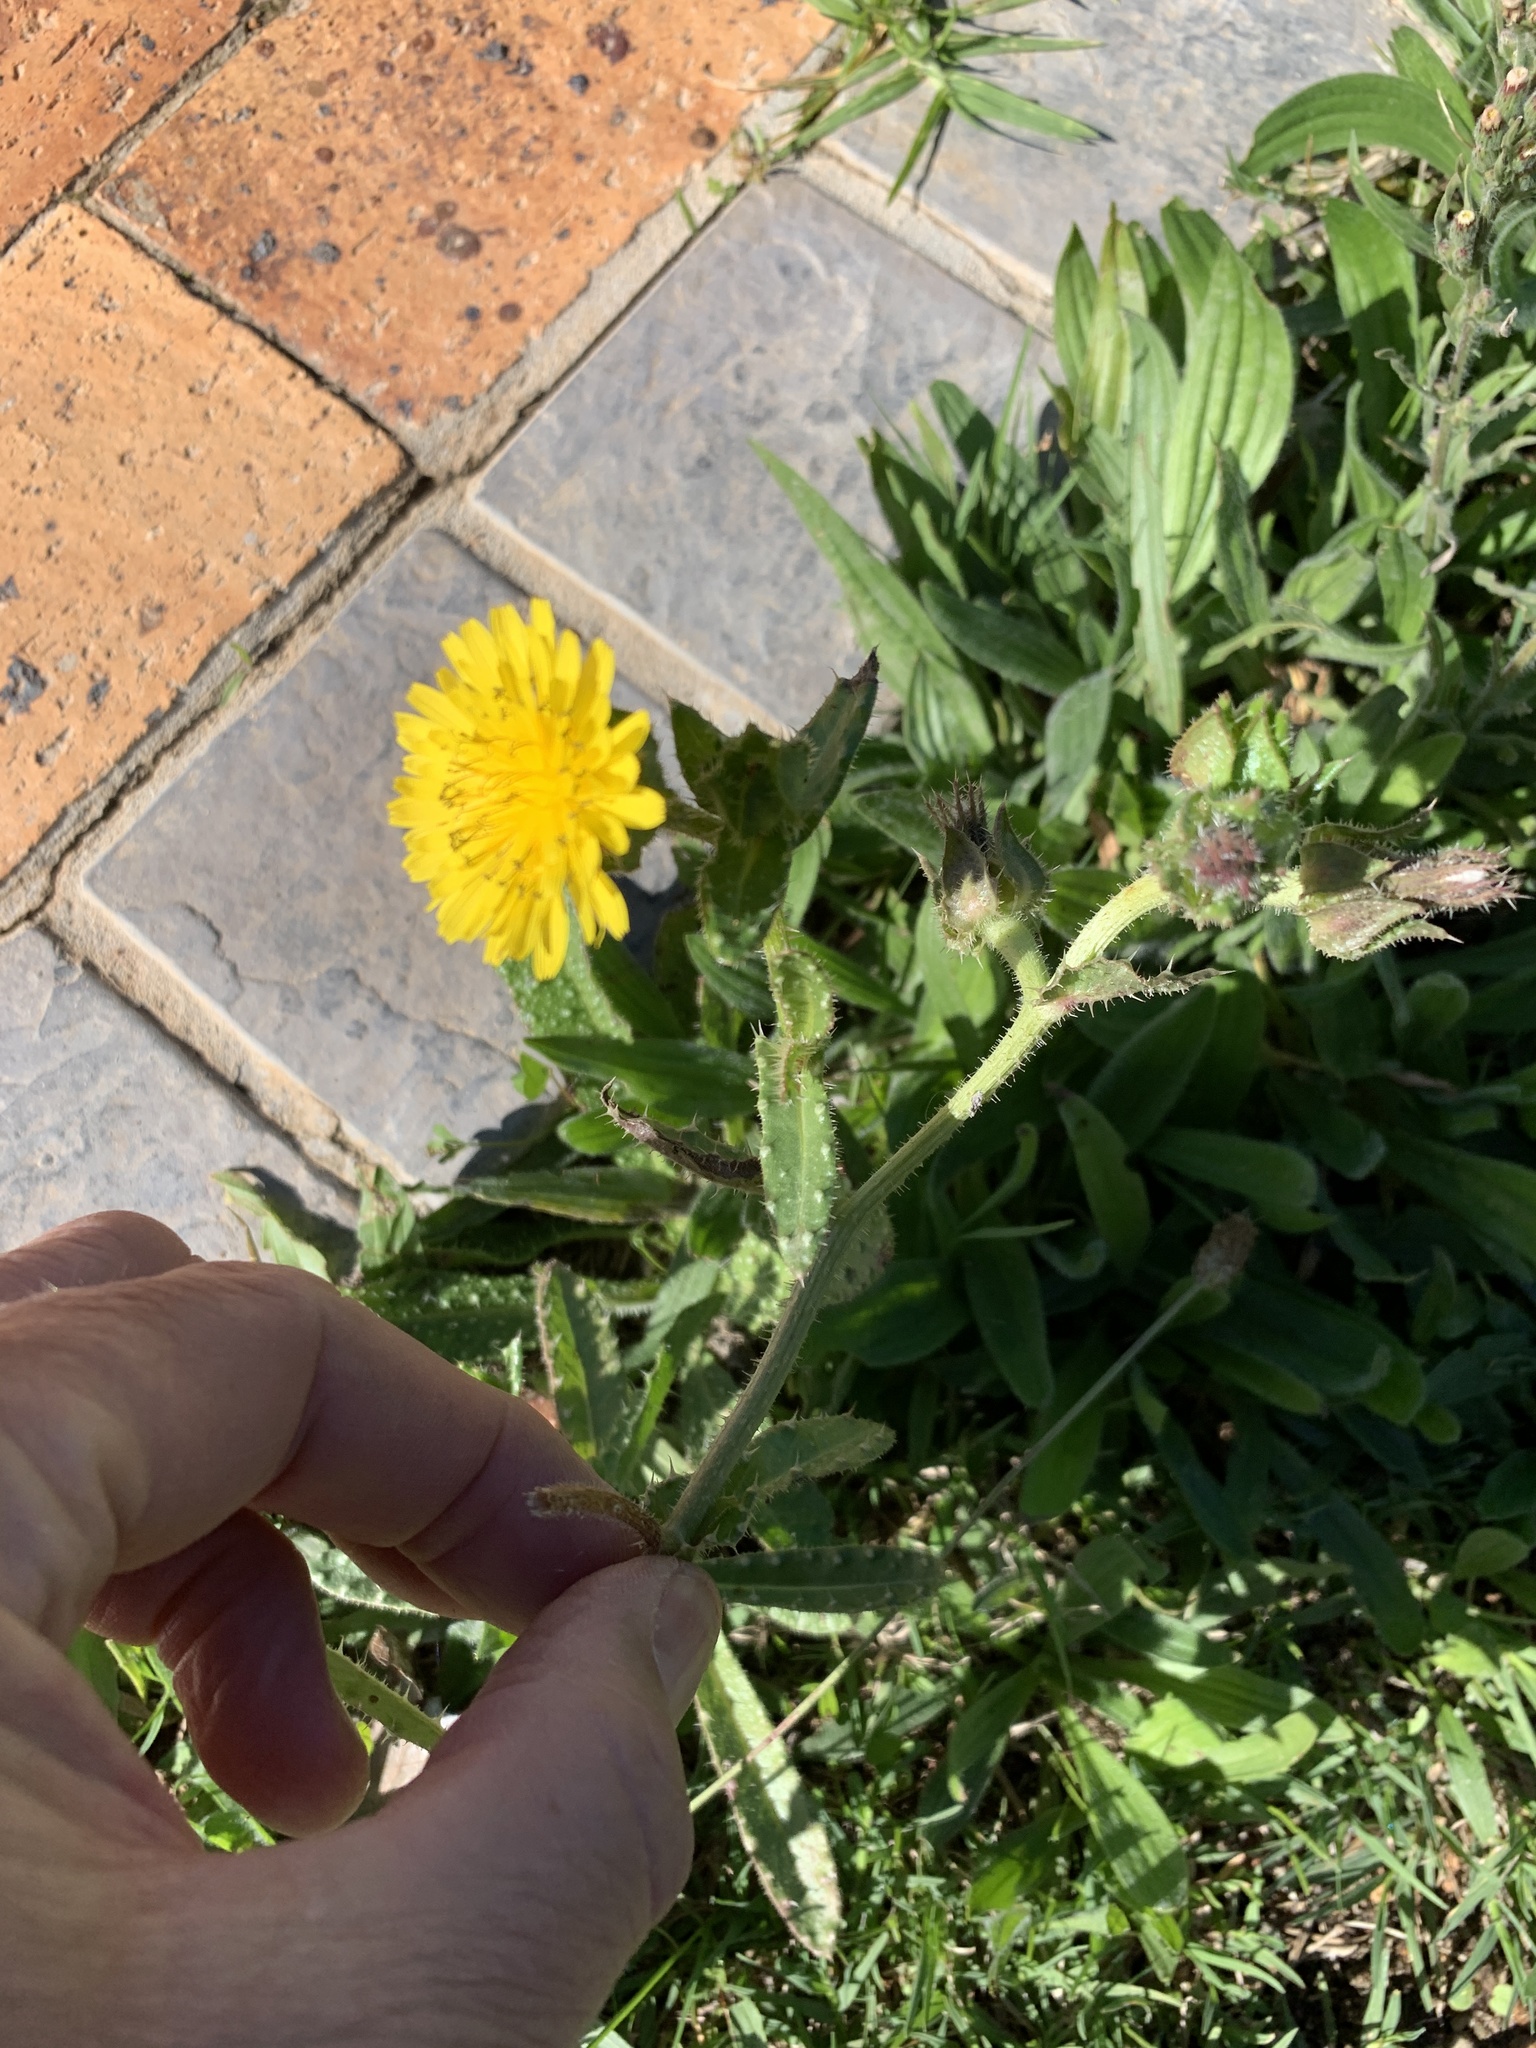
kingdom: Plantae
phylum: Tracheophyta
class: Magnoliopsida
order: Asterales
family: Asteraceae
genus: Helminthotheca
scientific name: Helminthotheca echioides
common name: Ox-tongue
